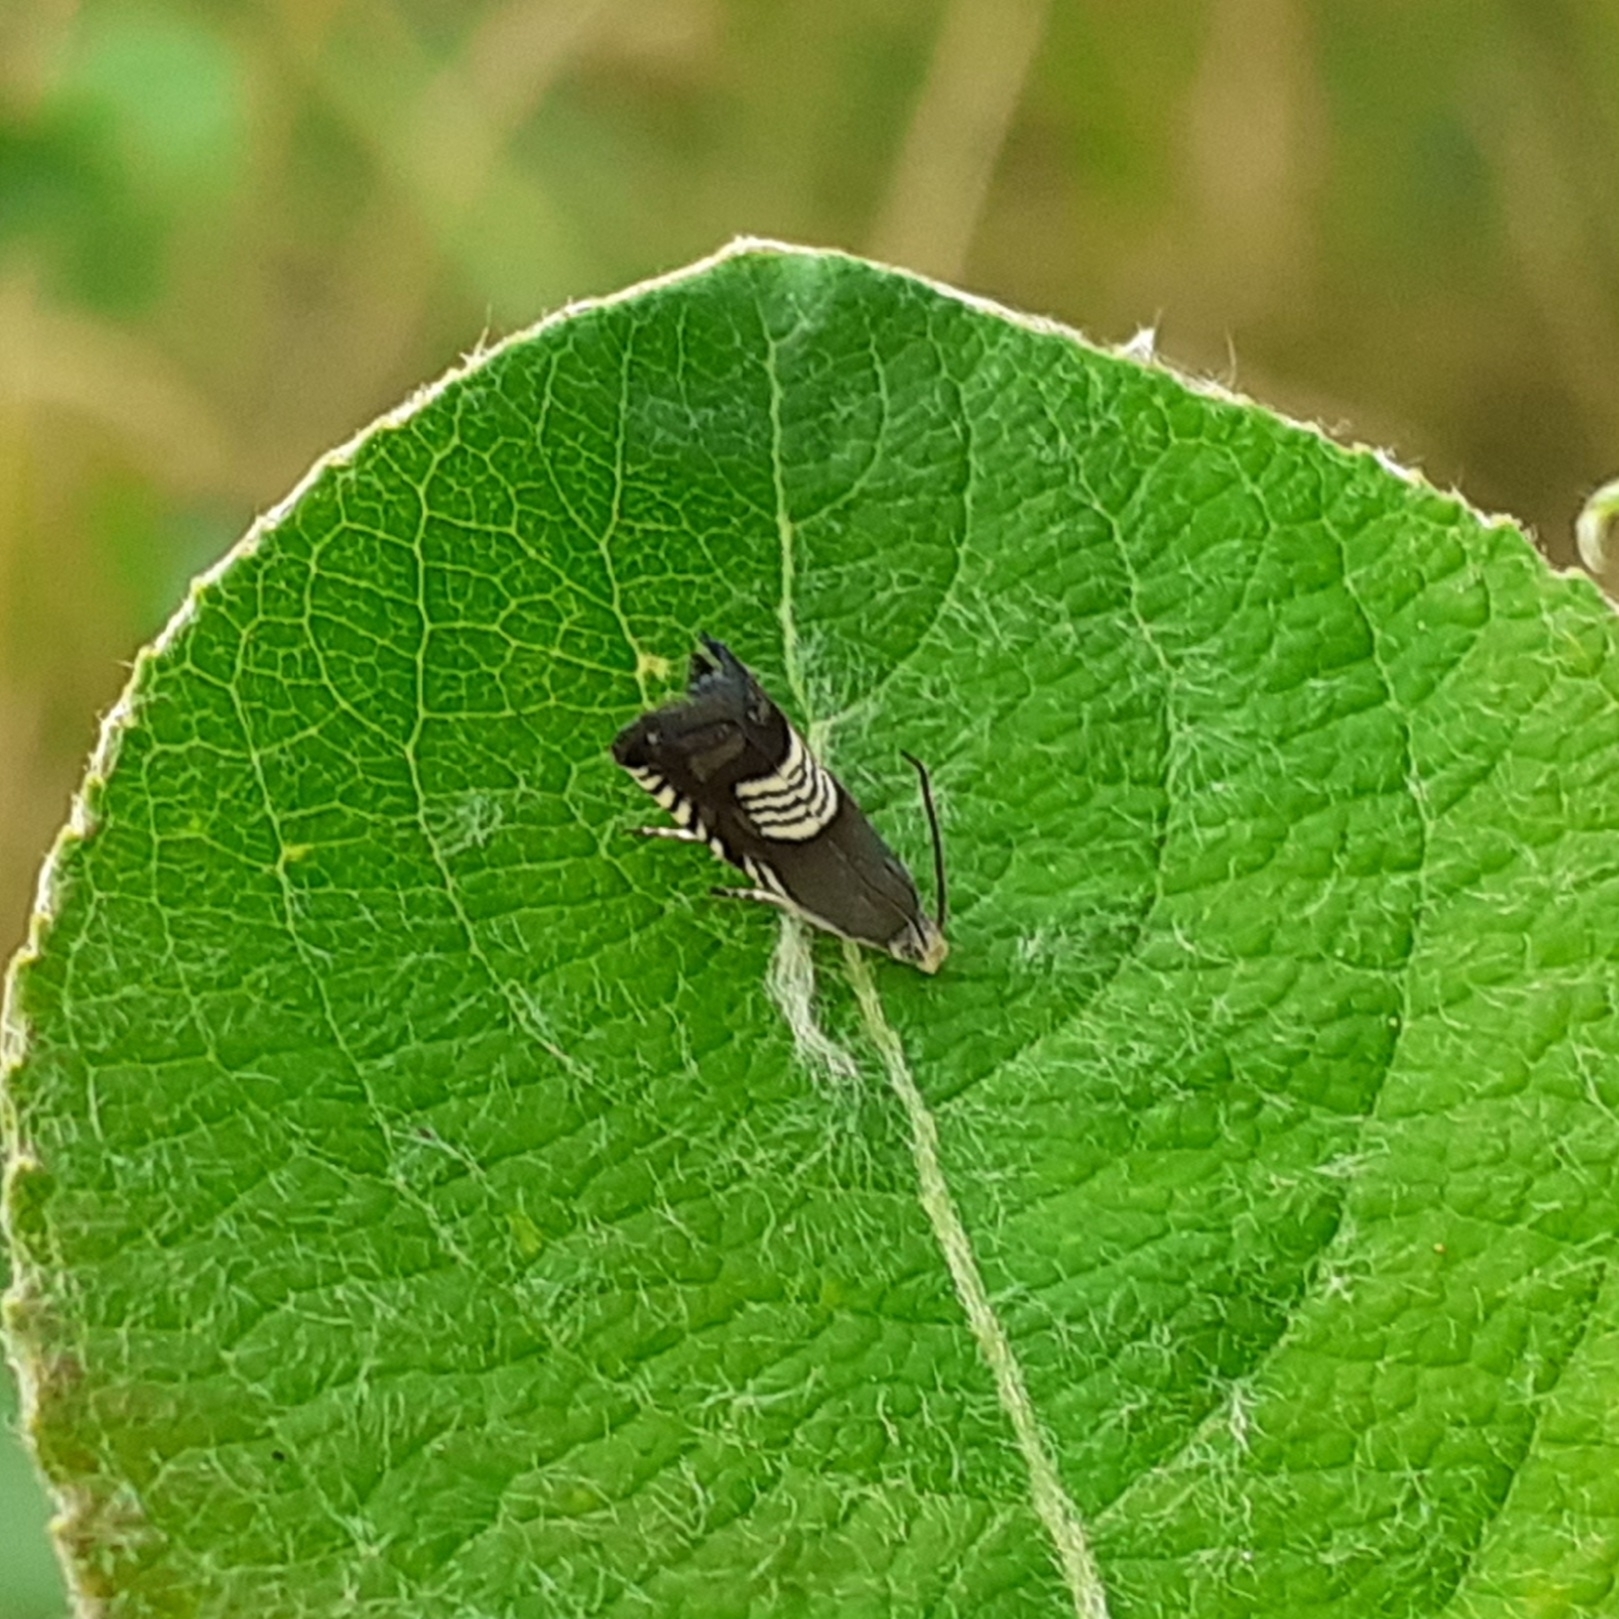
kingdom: Animalia
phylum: Arthropoda
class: Insecta
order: Lepidoptera
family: Tortricidae
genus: Grapholita
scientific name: Grapholita compositella
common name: Triple-stripe piercer
